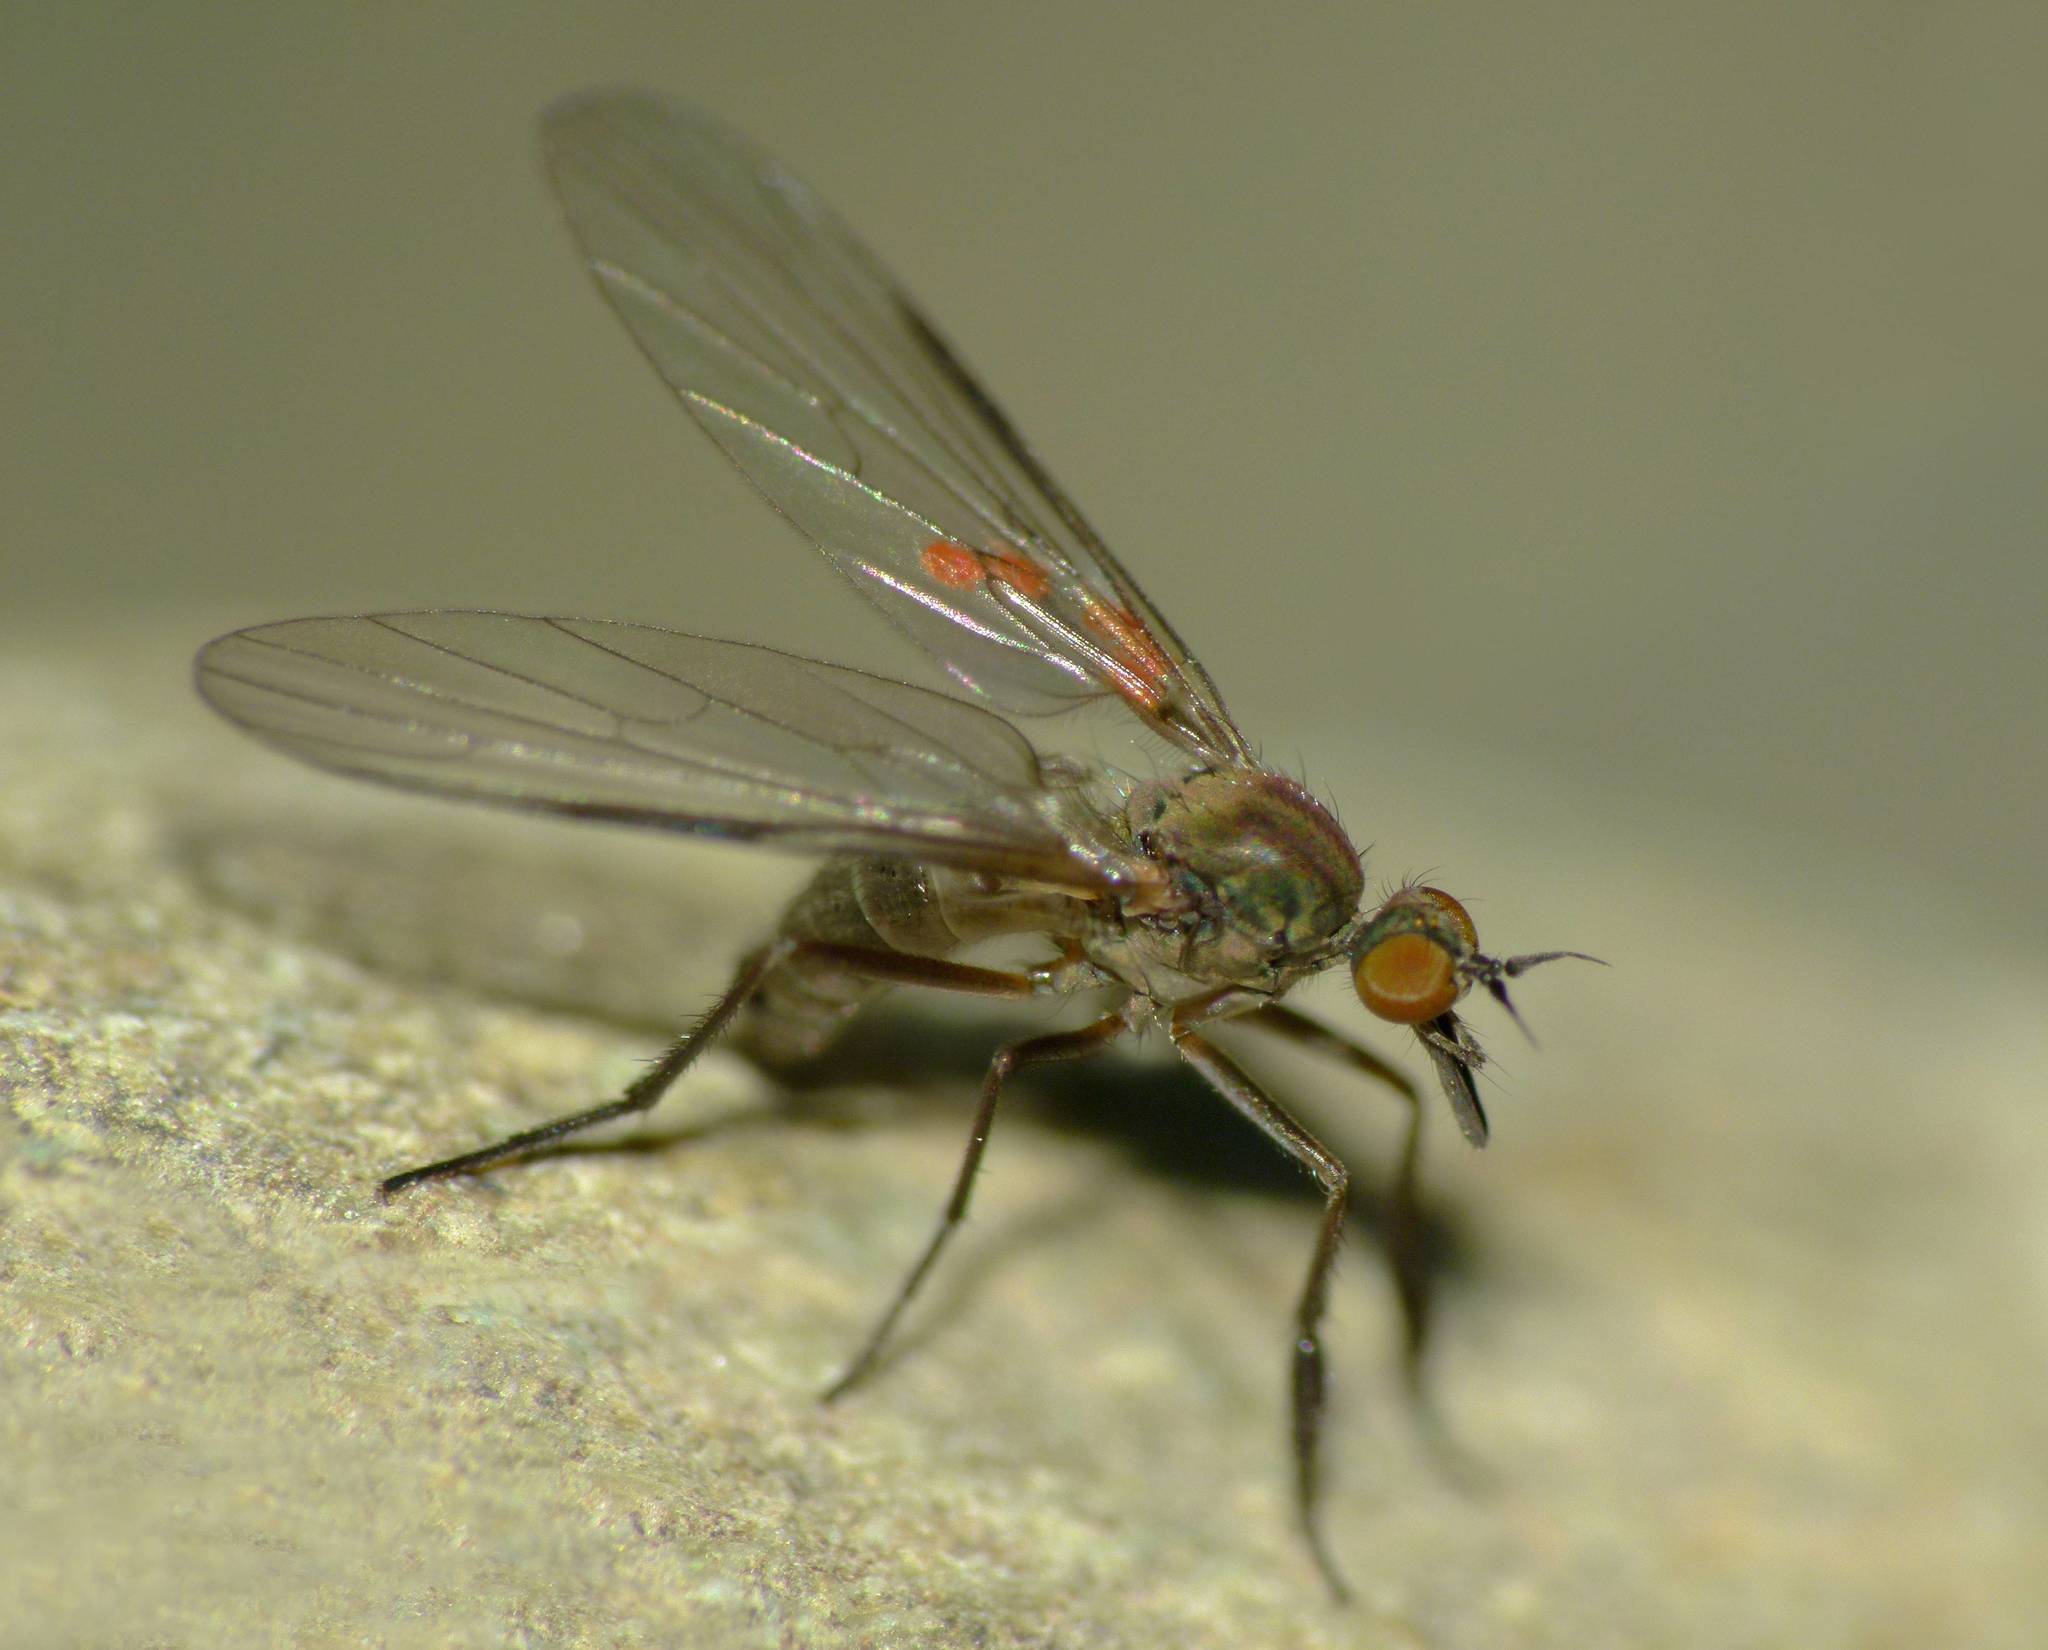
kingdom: Animalia
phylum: Arthropoda
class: Insecta
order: Diptera
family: Empididae
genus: Hilara
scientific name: Hilara
